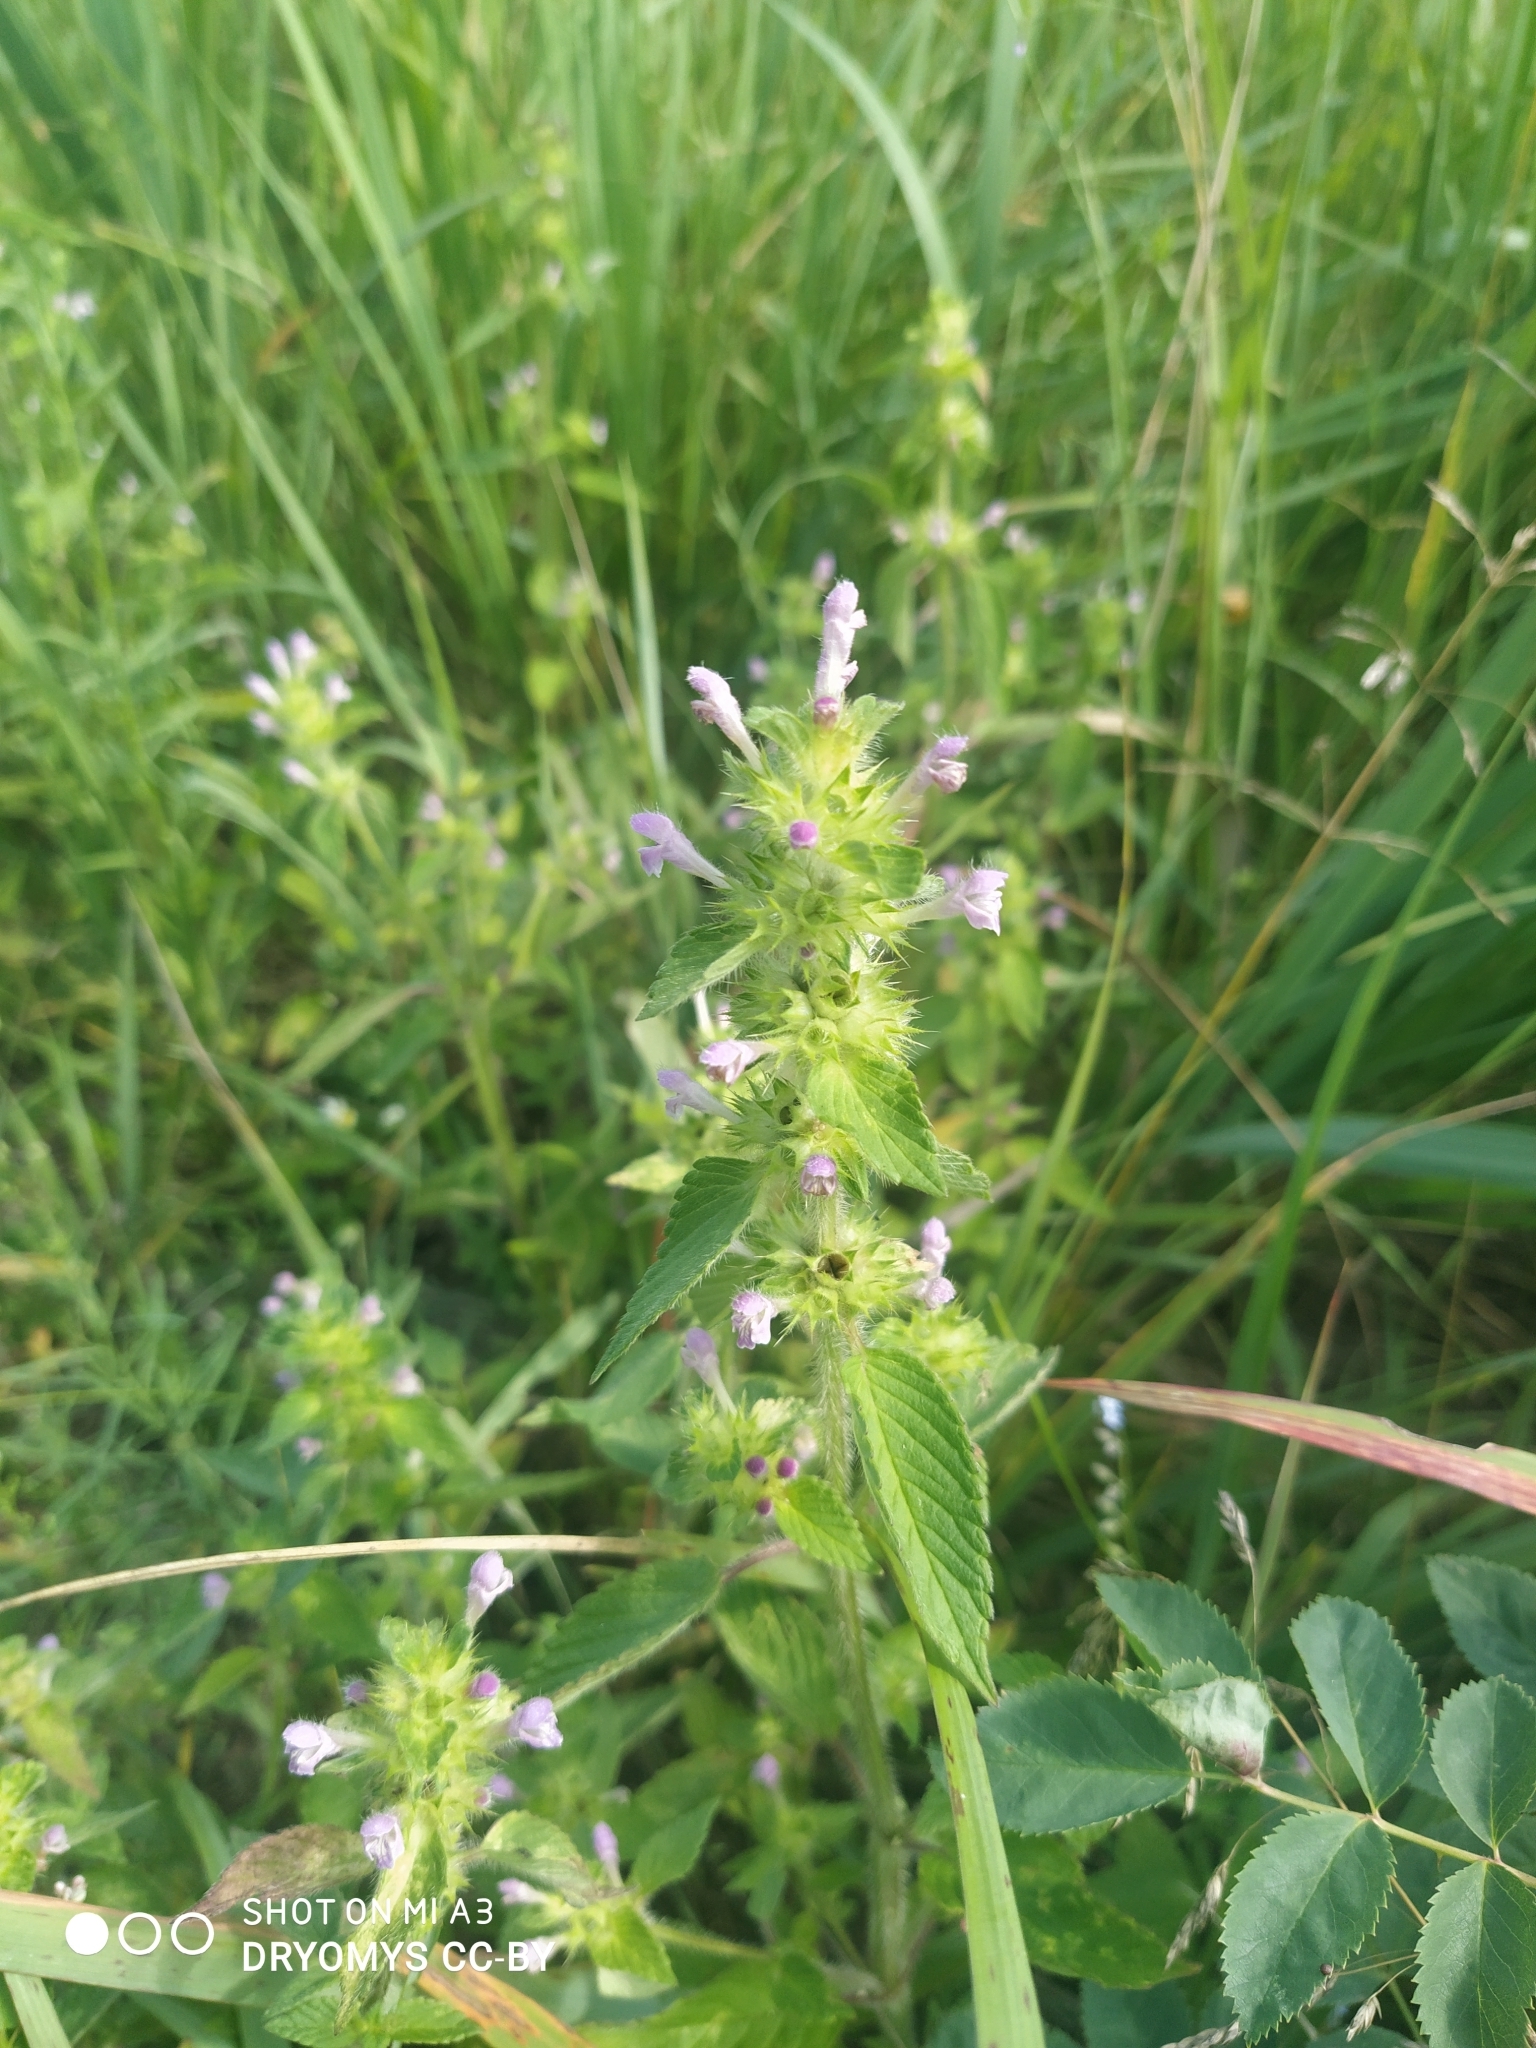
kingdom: Plantae
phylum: Tracheophyta
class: Magnoliopsida
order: Lamiales
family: Lamiaceae
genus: Galeopsis
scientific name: Galeopsis bifida
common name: Bifid hemp-nettle
